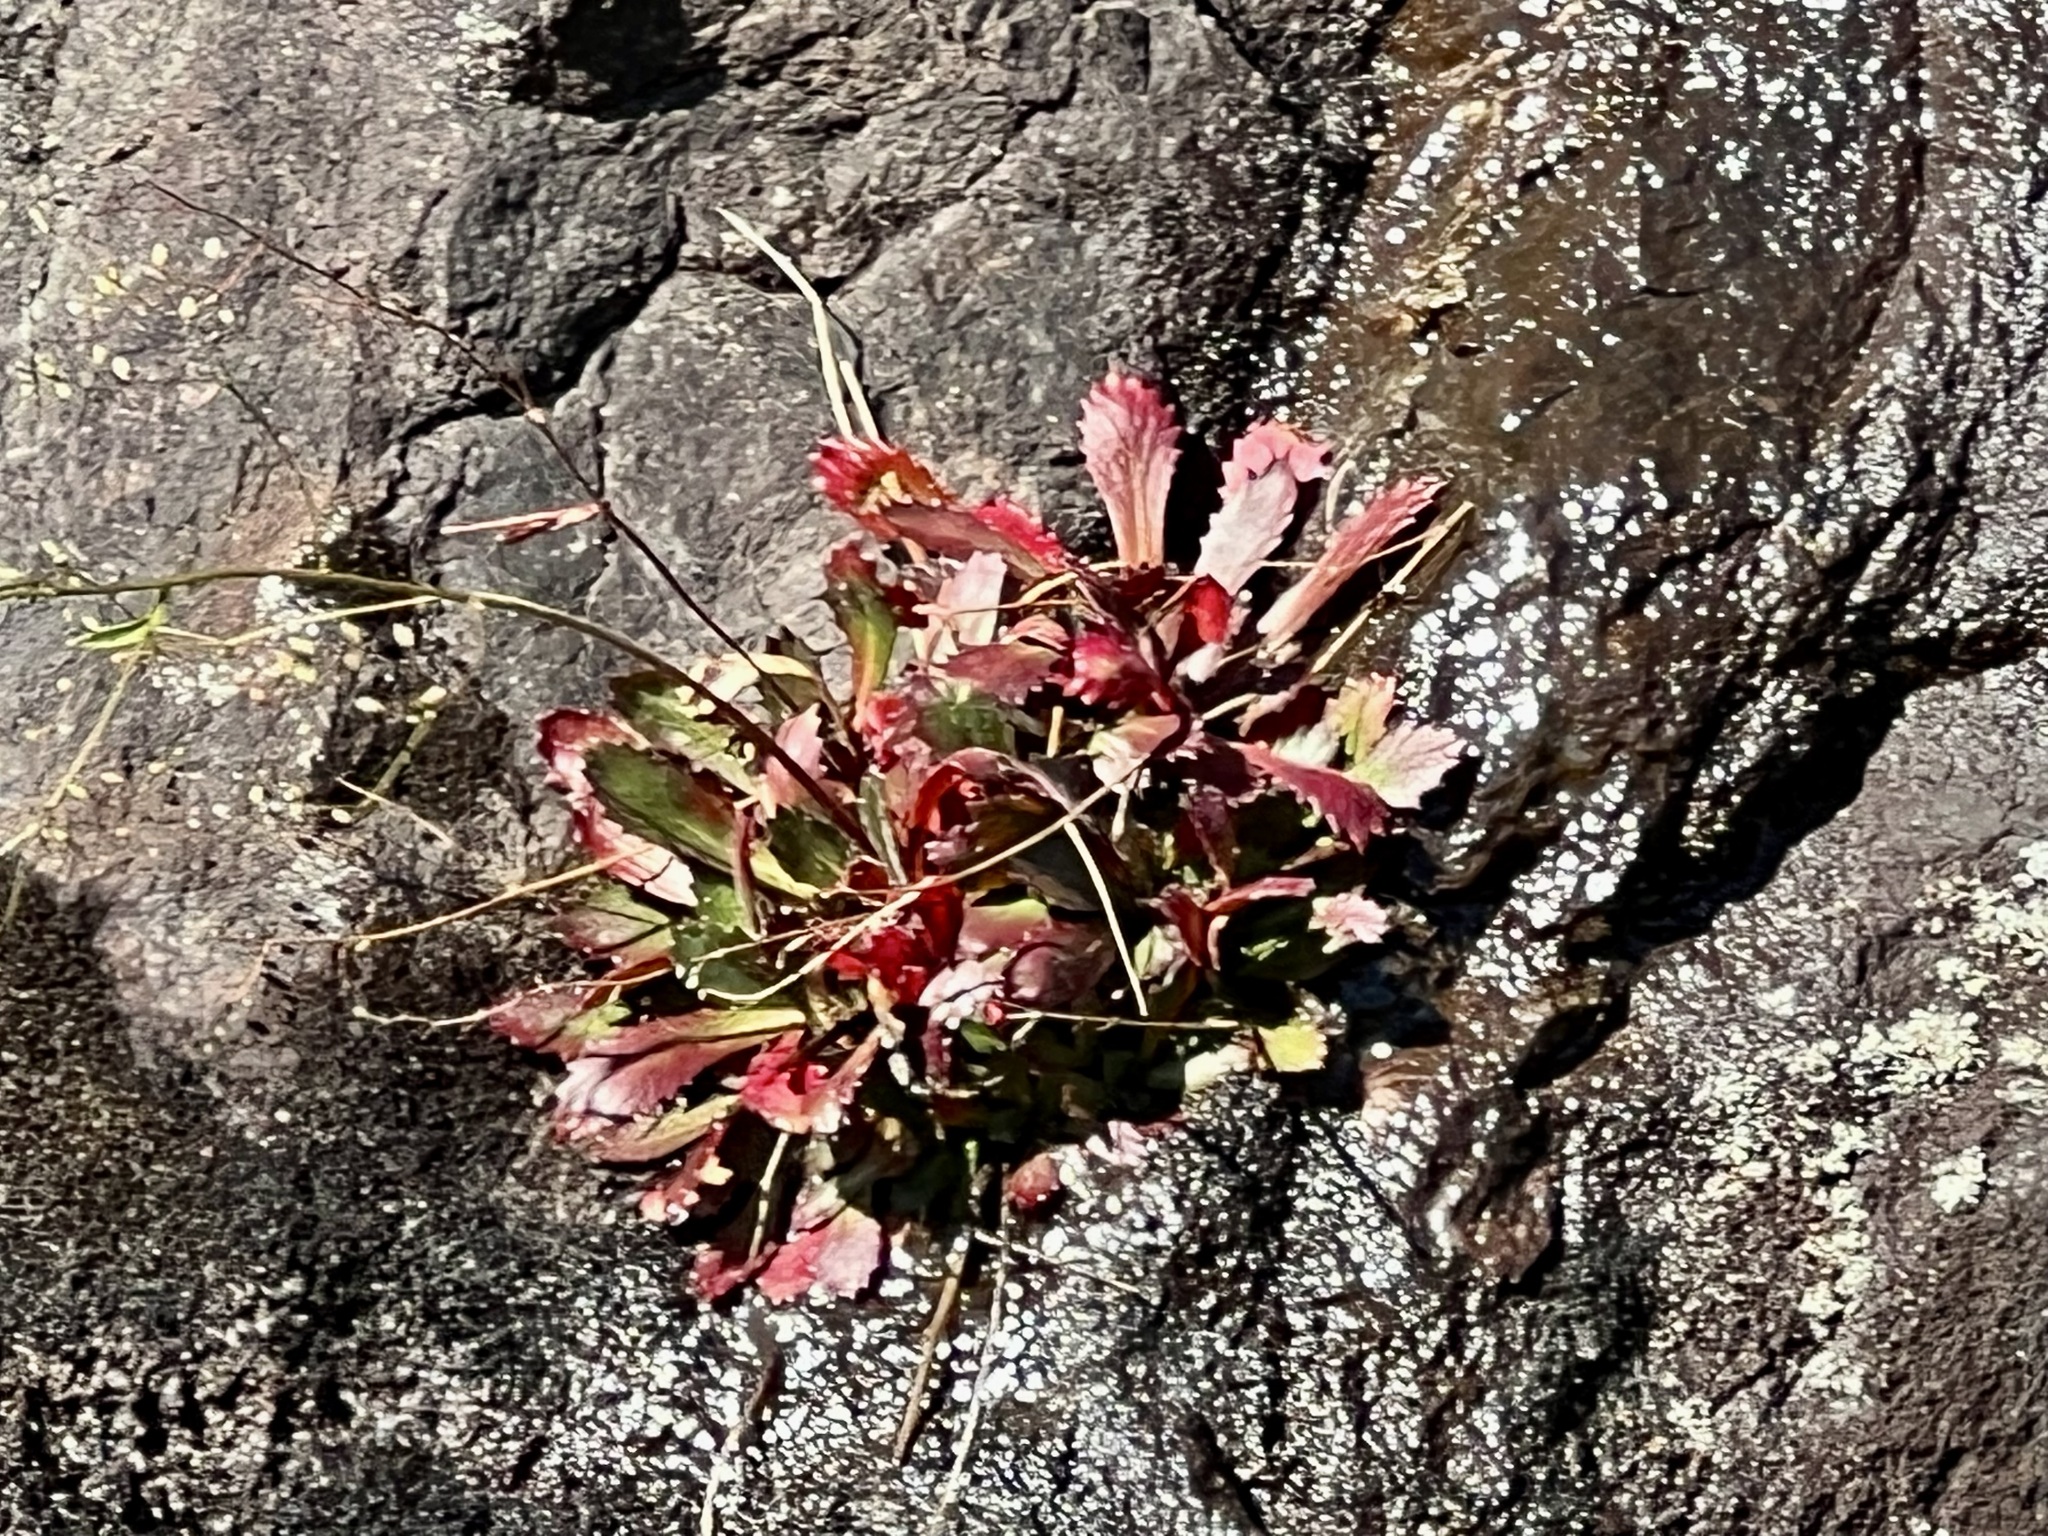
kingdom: Plantae
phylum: Tracheophyta
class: Magnoliopsida
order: Saxifragales
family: Saxifragaceae
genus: Micranthes
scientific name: Micranthes petiolaris
